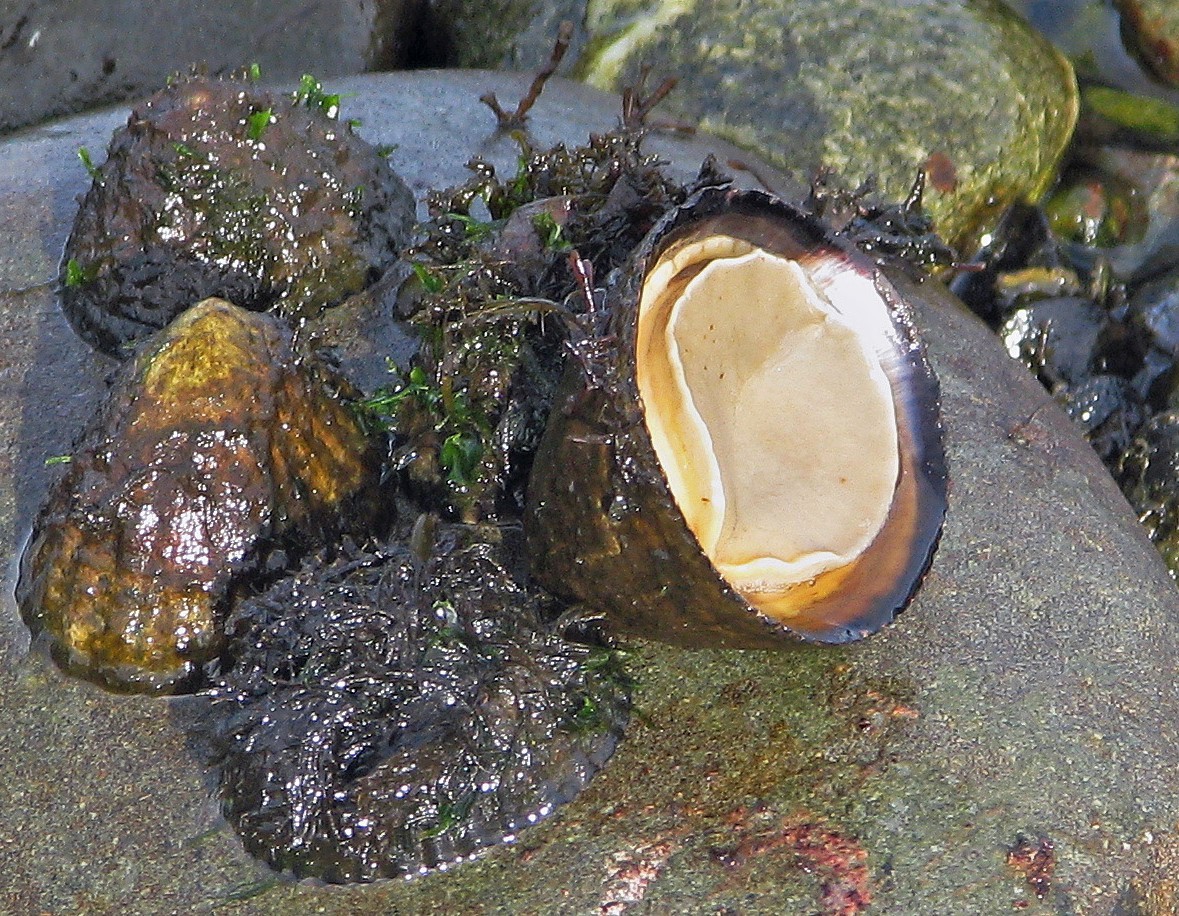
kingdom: Animalia
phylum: Mollusca
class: Gastropoda
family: Nacellidae
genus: Nacella
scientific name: Nacella magellanica
